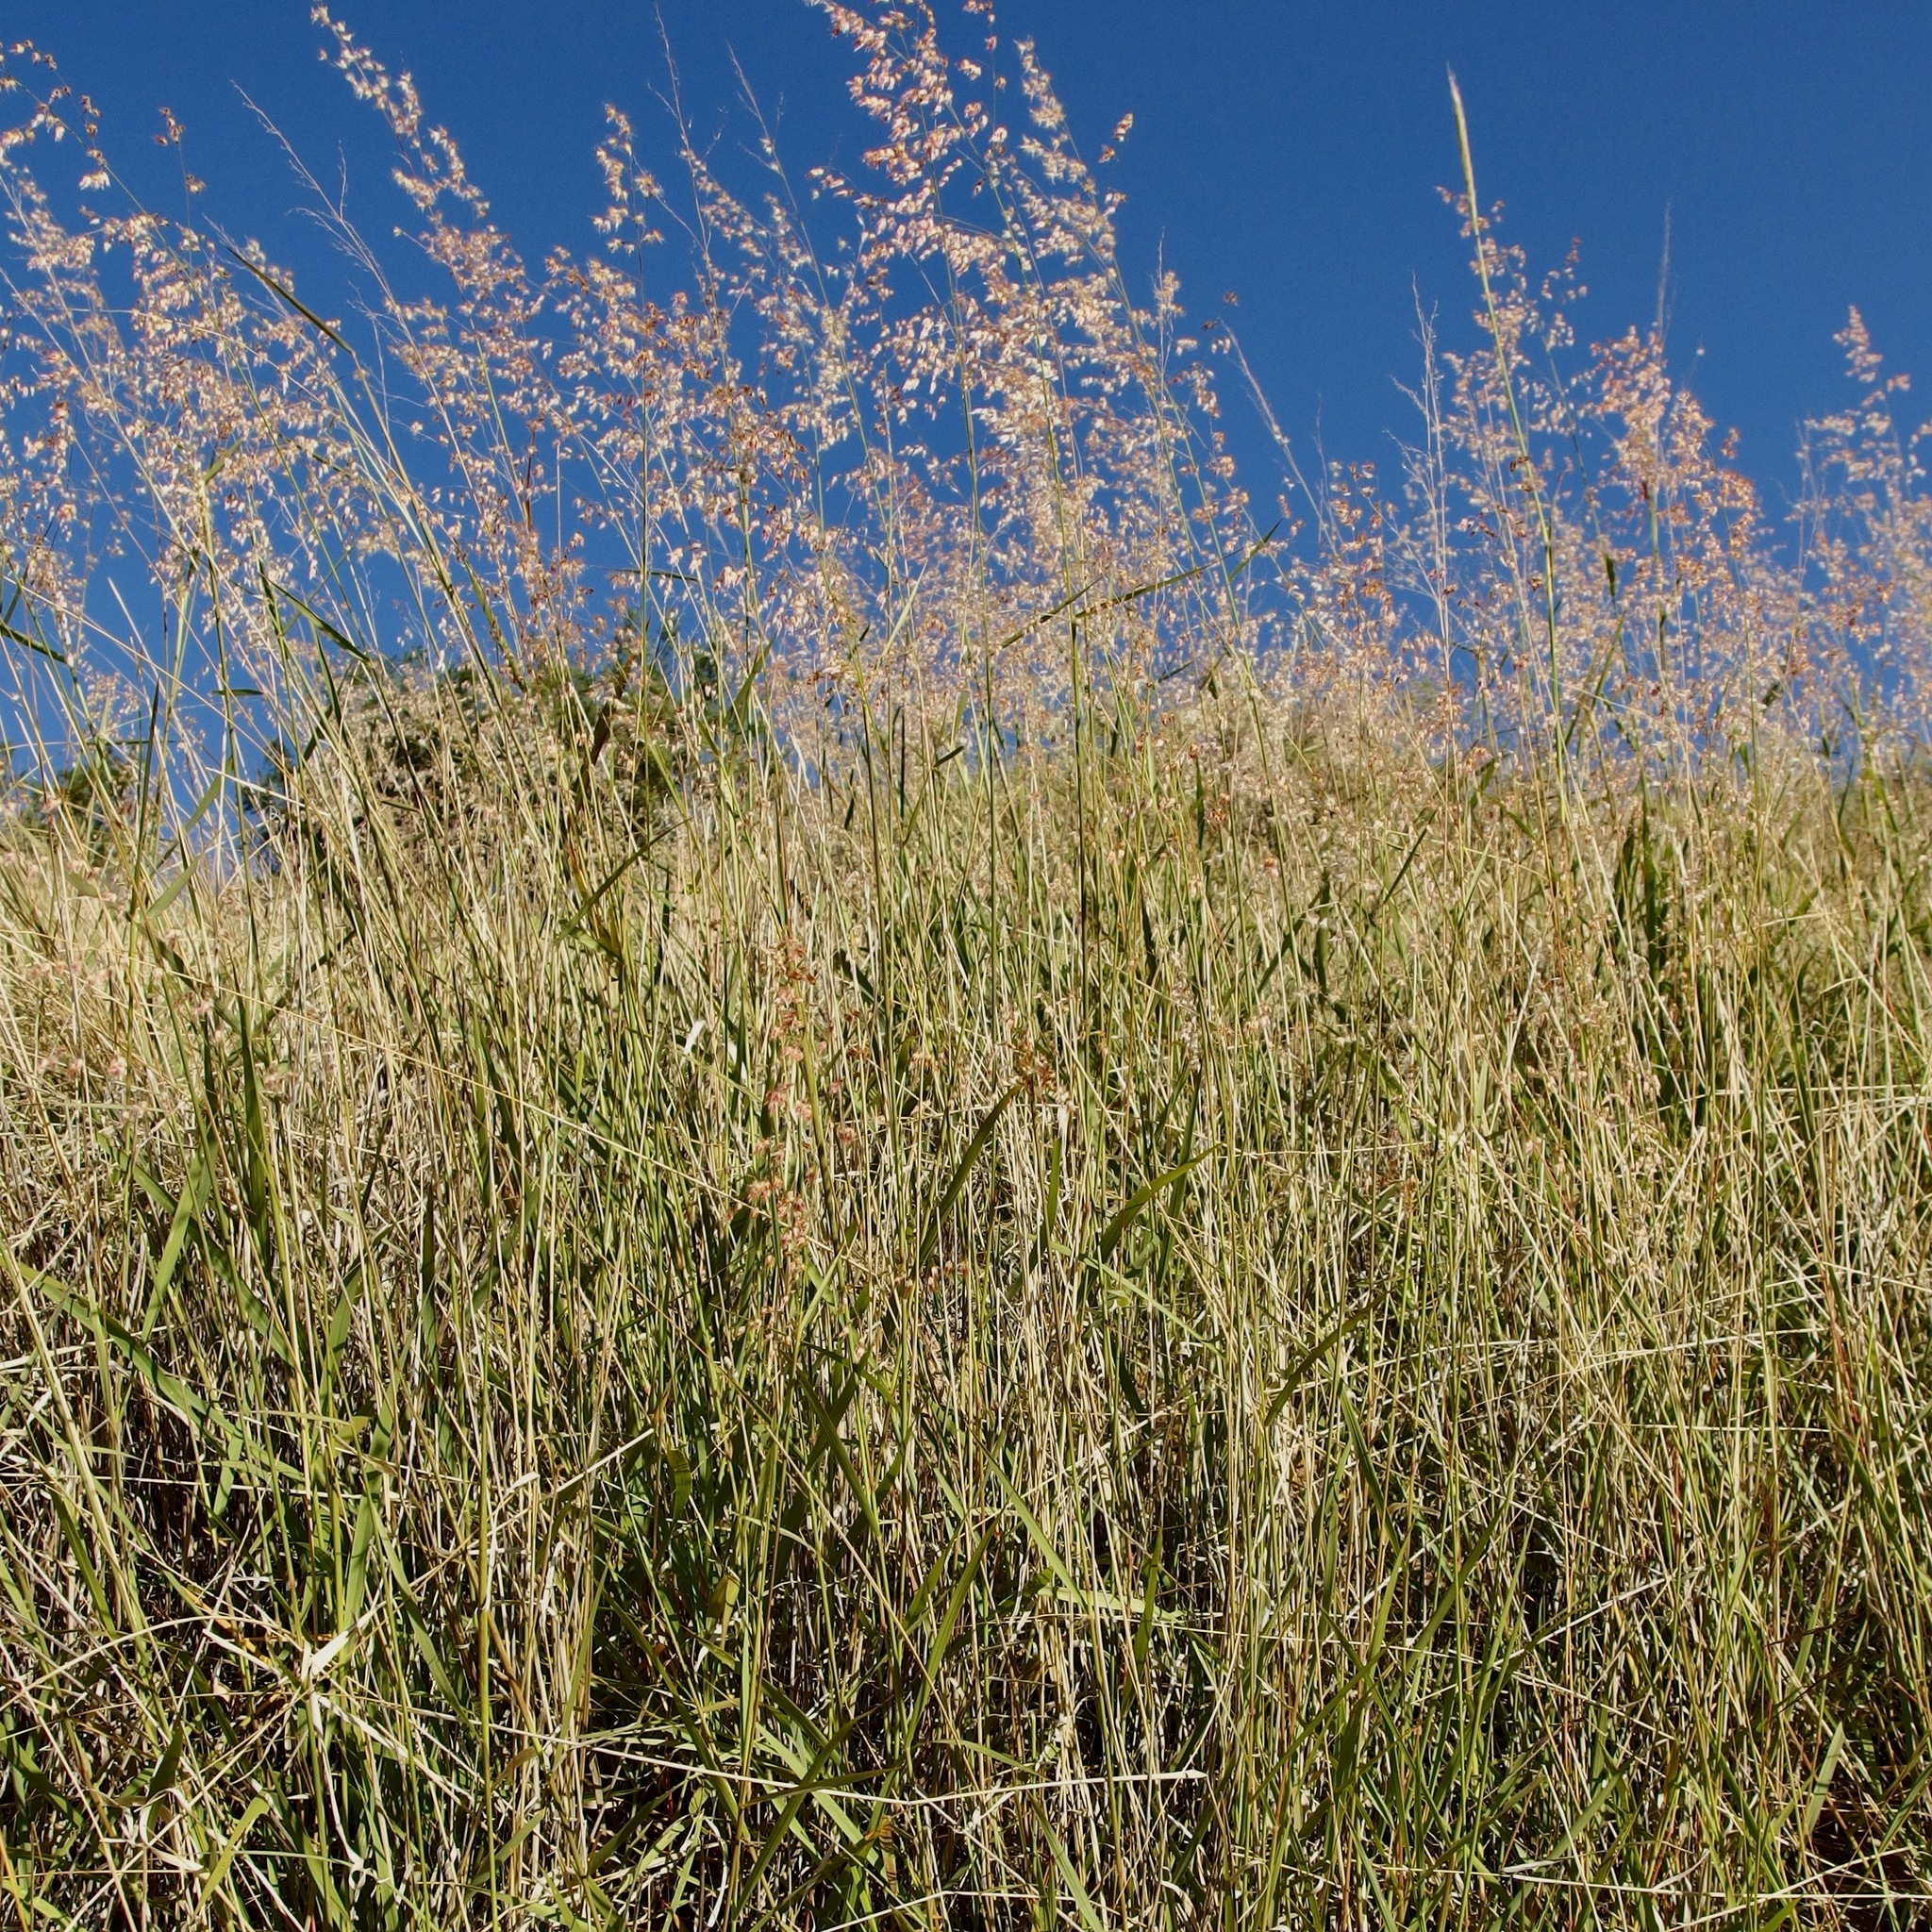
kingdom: Plantae
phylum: Tracheophyta
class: Liliopsida
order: Poales
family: Poaceae
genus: Melinis
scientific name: Melinis repens
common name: Rose natal grass
